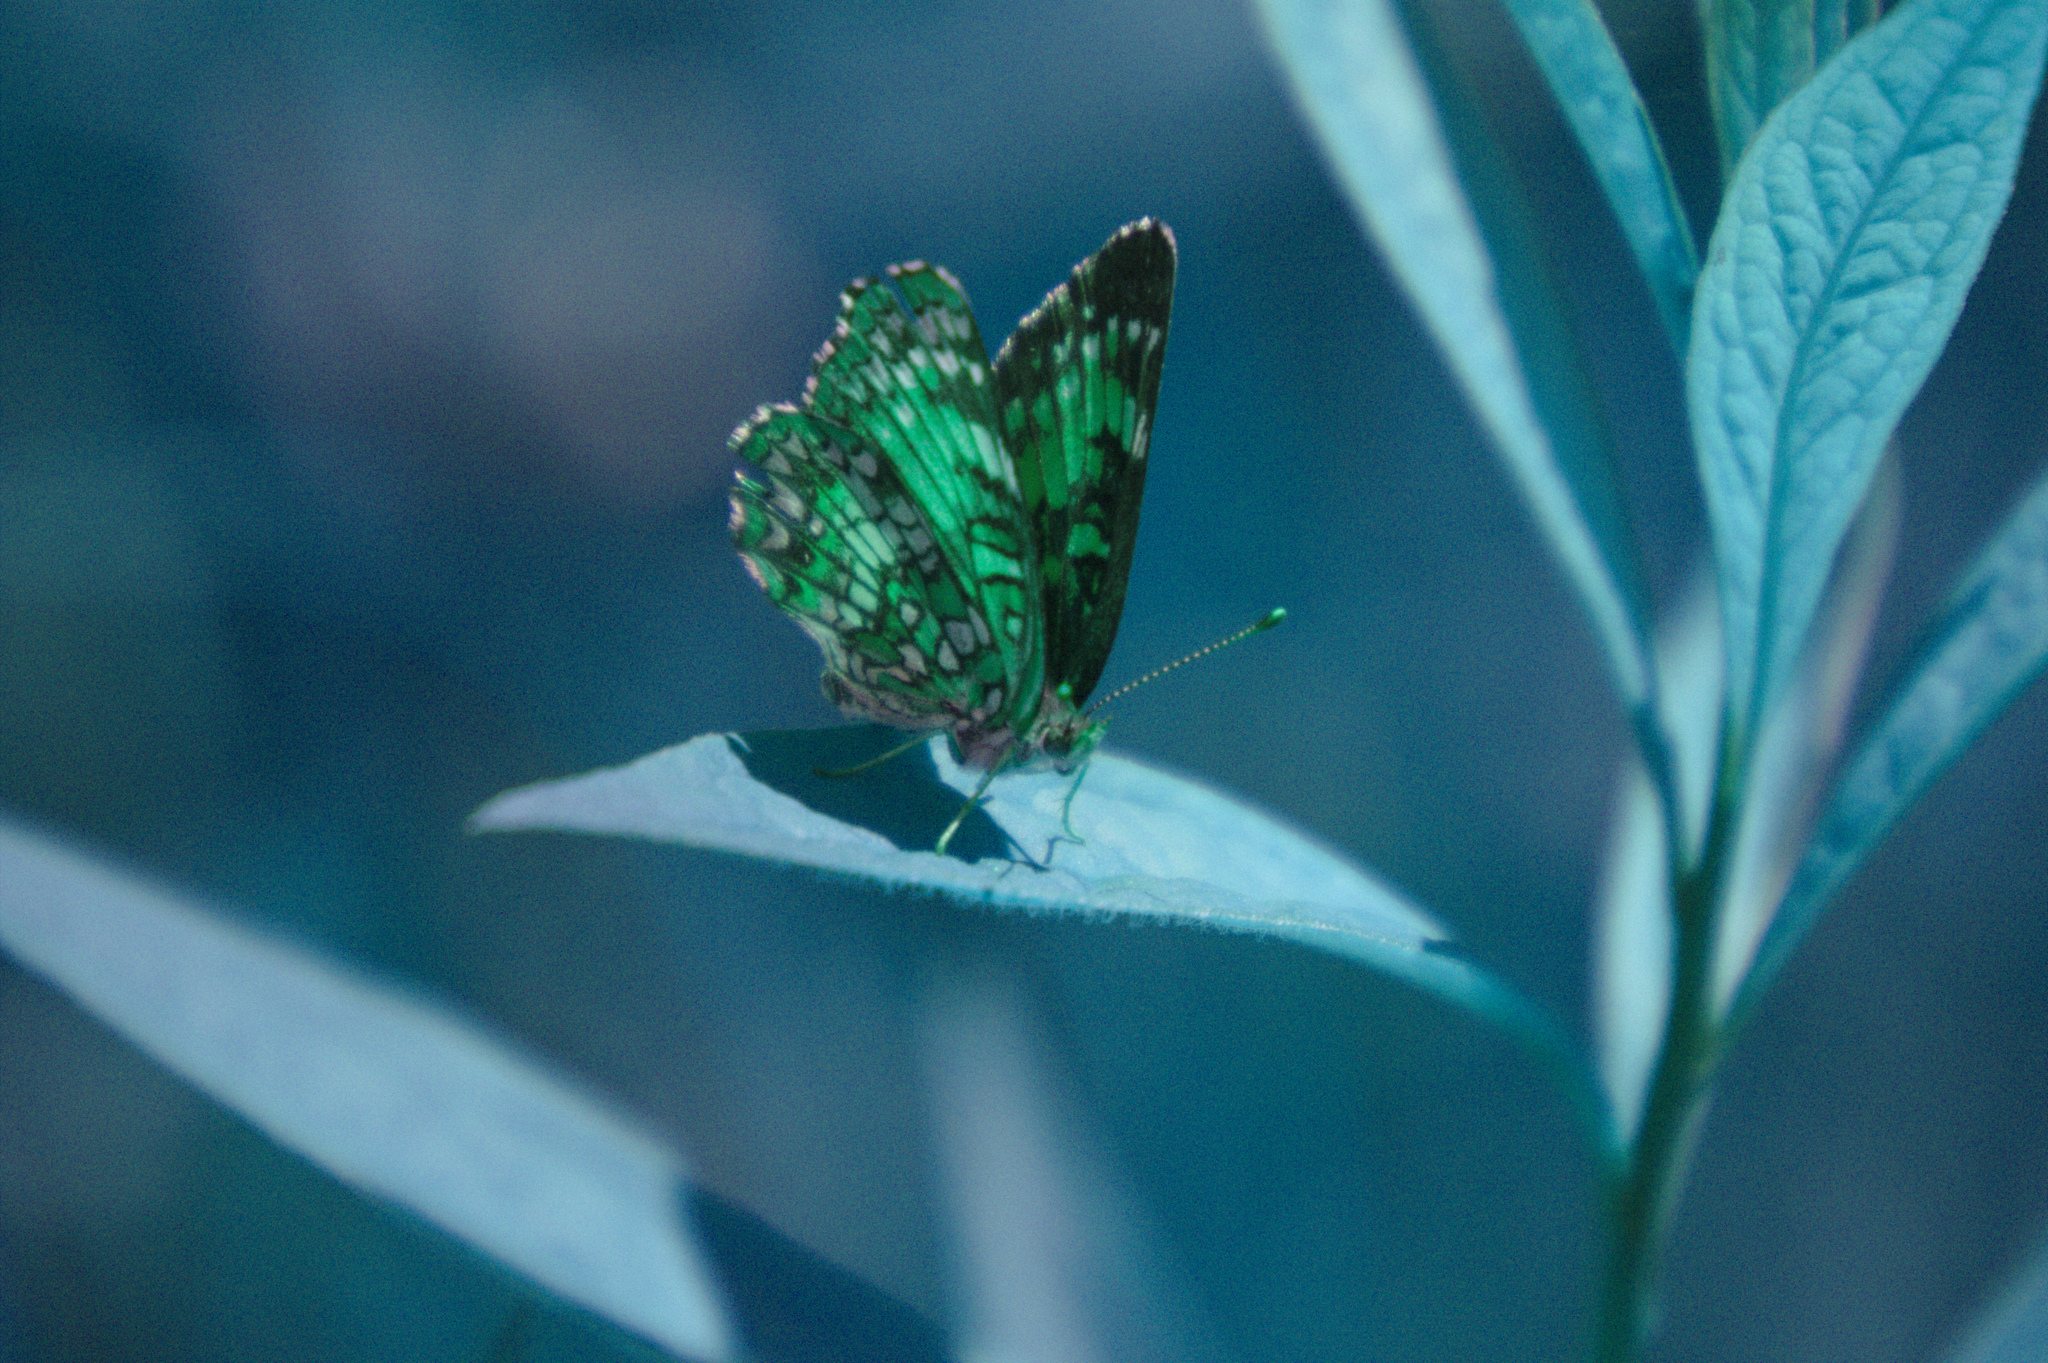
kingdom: Animalia
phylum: Arthropoda
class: Insecta
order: Lepidoptera
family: Nymphalidae
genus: Chlosyne
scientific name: Chlosyne harrisii
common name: Harris's checkerspot
